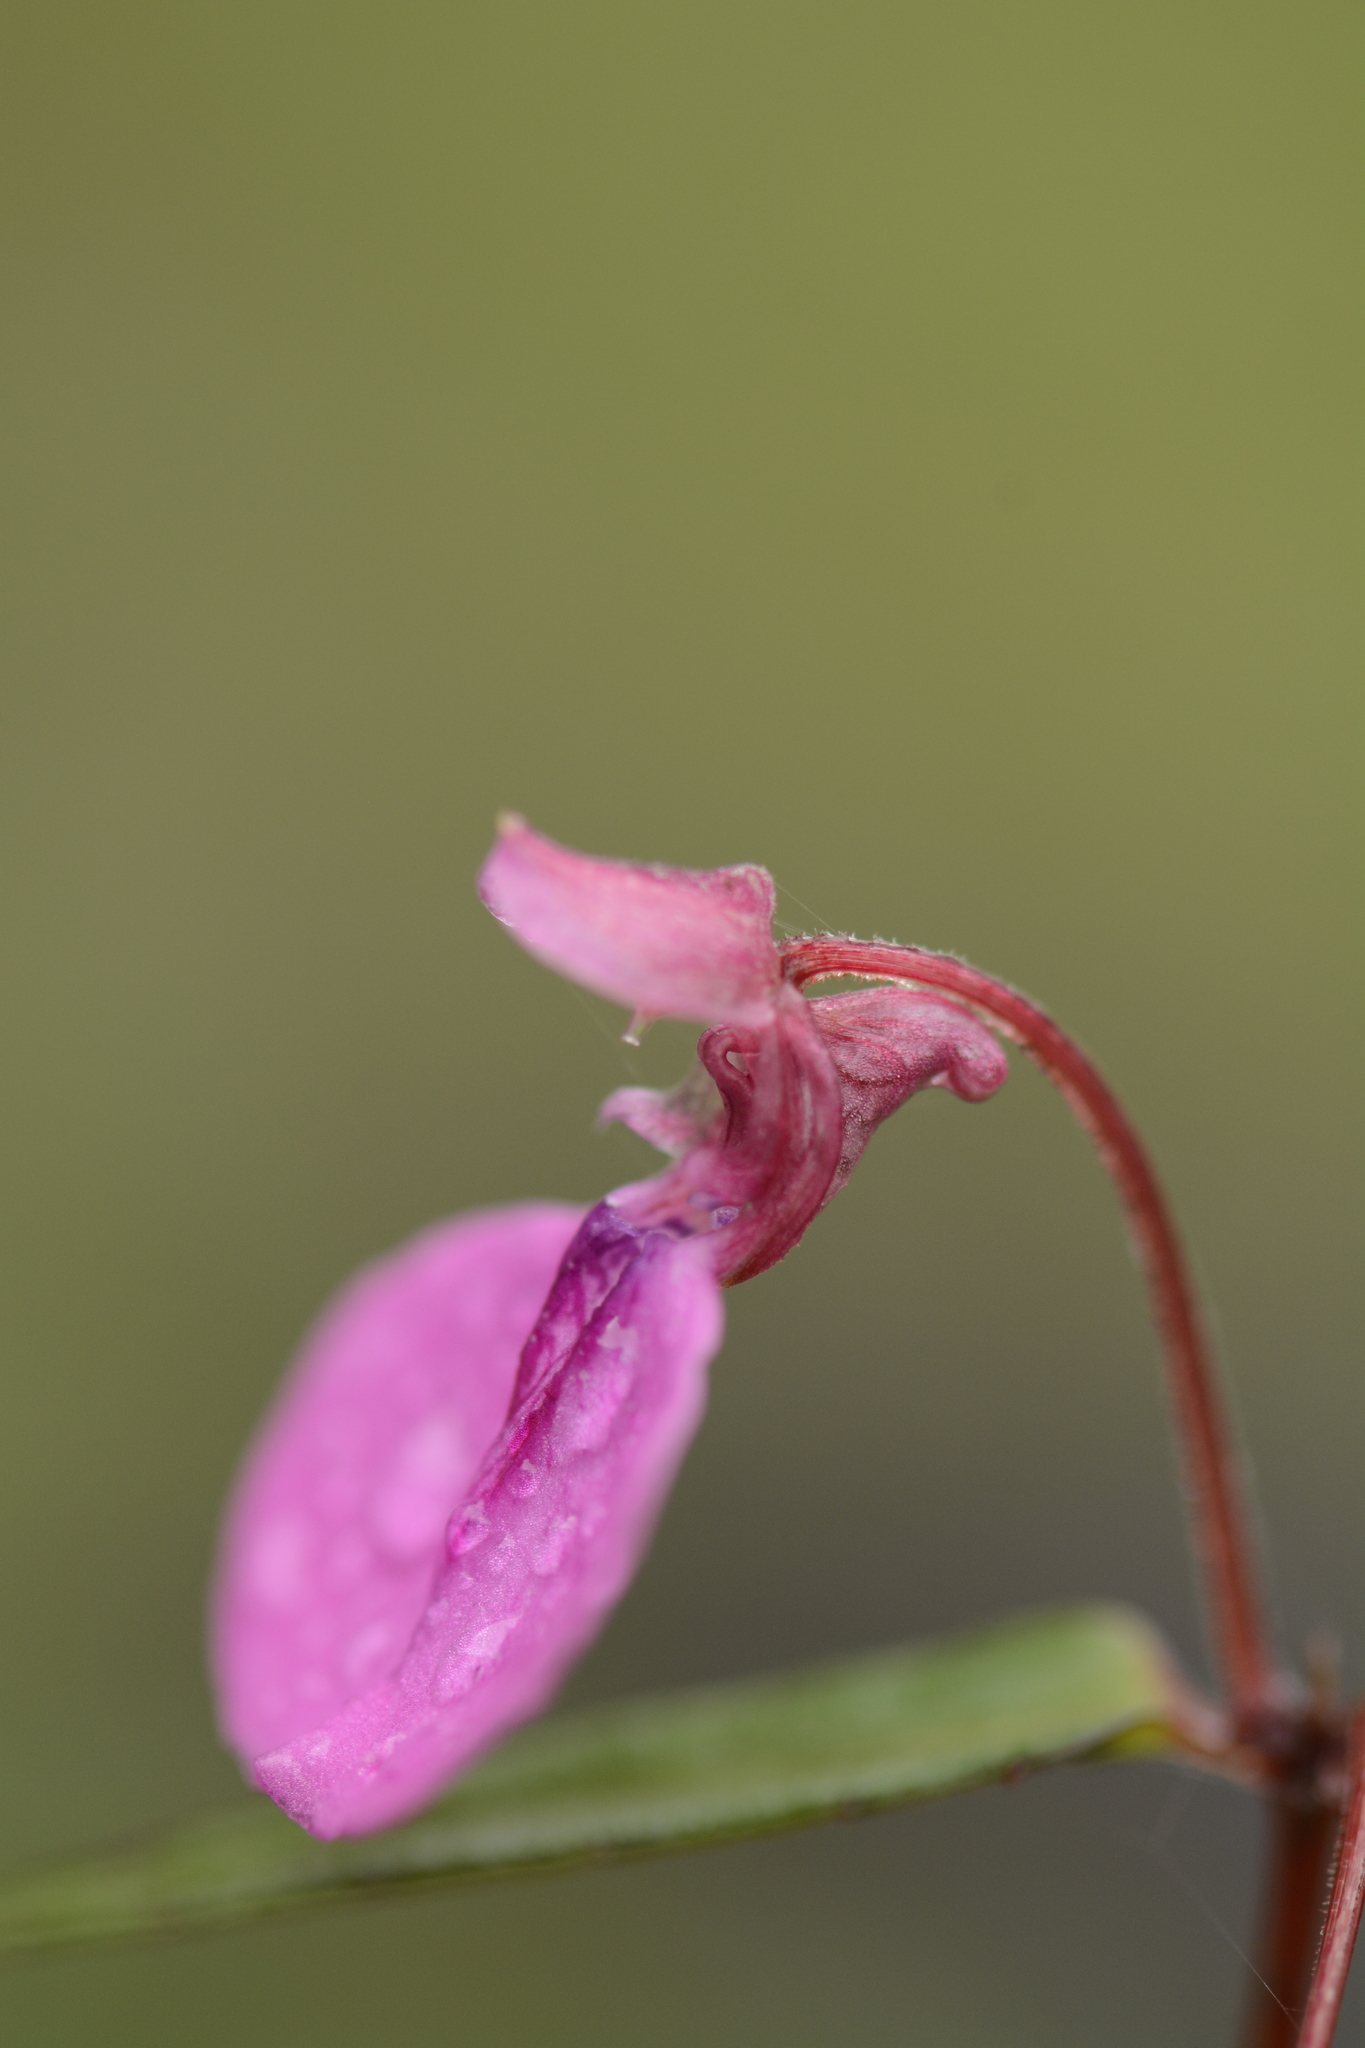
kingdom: Plantae
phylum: Tracheophyta
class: Magnoliopsida
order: Ericales
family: Balsaminaceae
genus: Impatiens
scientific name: Impatiens oppositifolia
